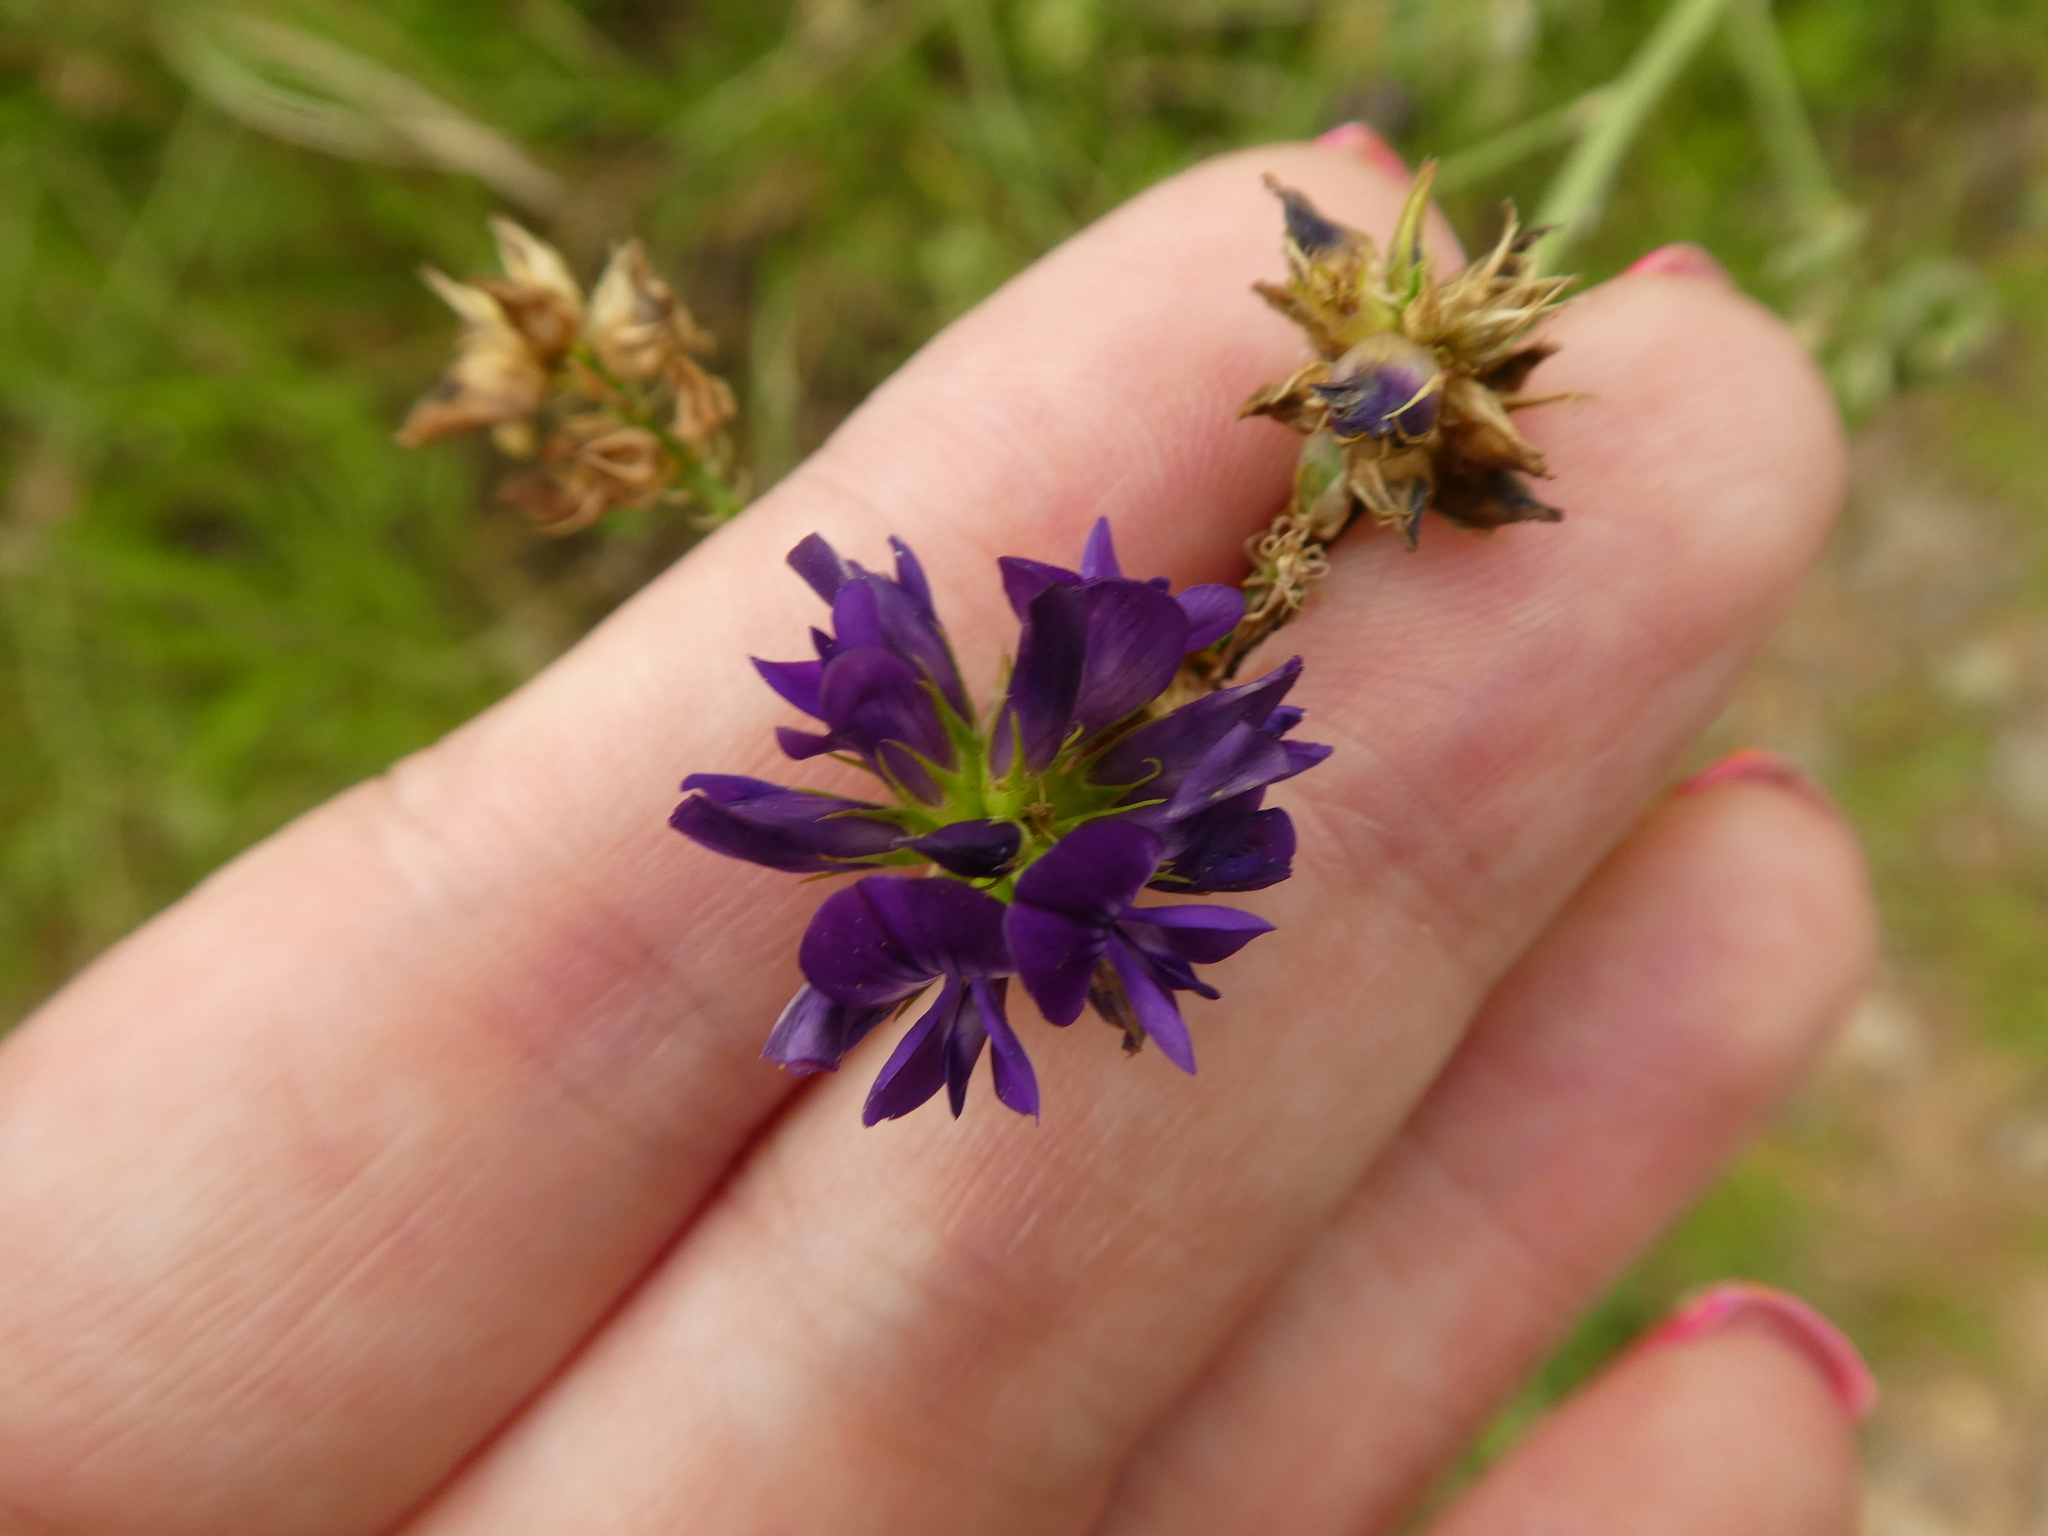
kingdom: Plantae
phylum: Tracheophyta
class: Magnoliopsida
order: Fabales
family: Fabaceae
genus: Medicago
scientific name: Medicago sativa
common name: Alfalfa
